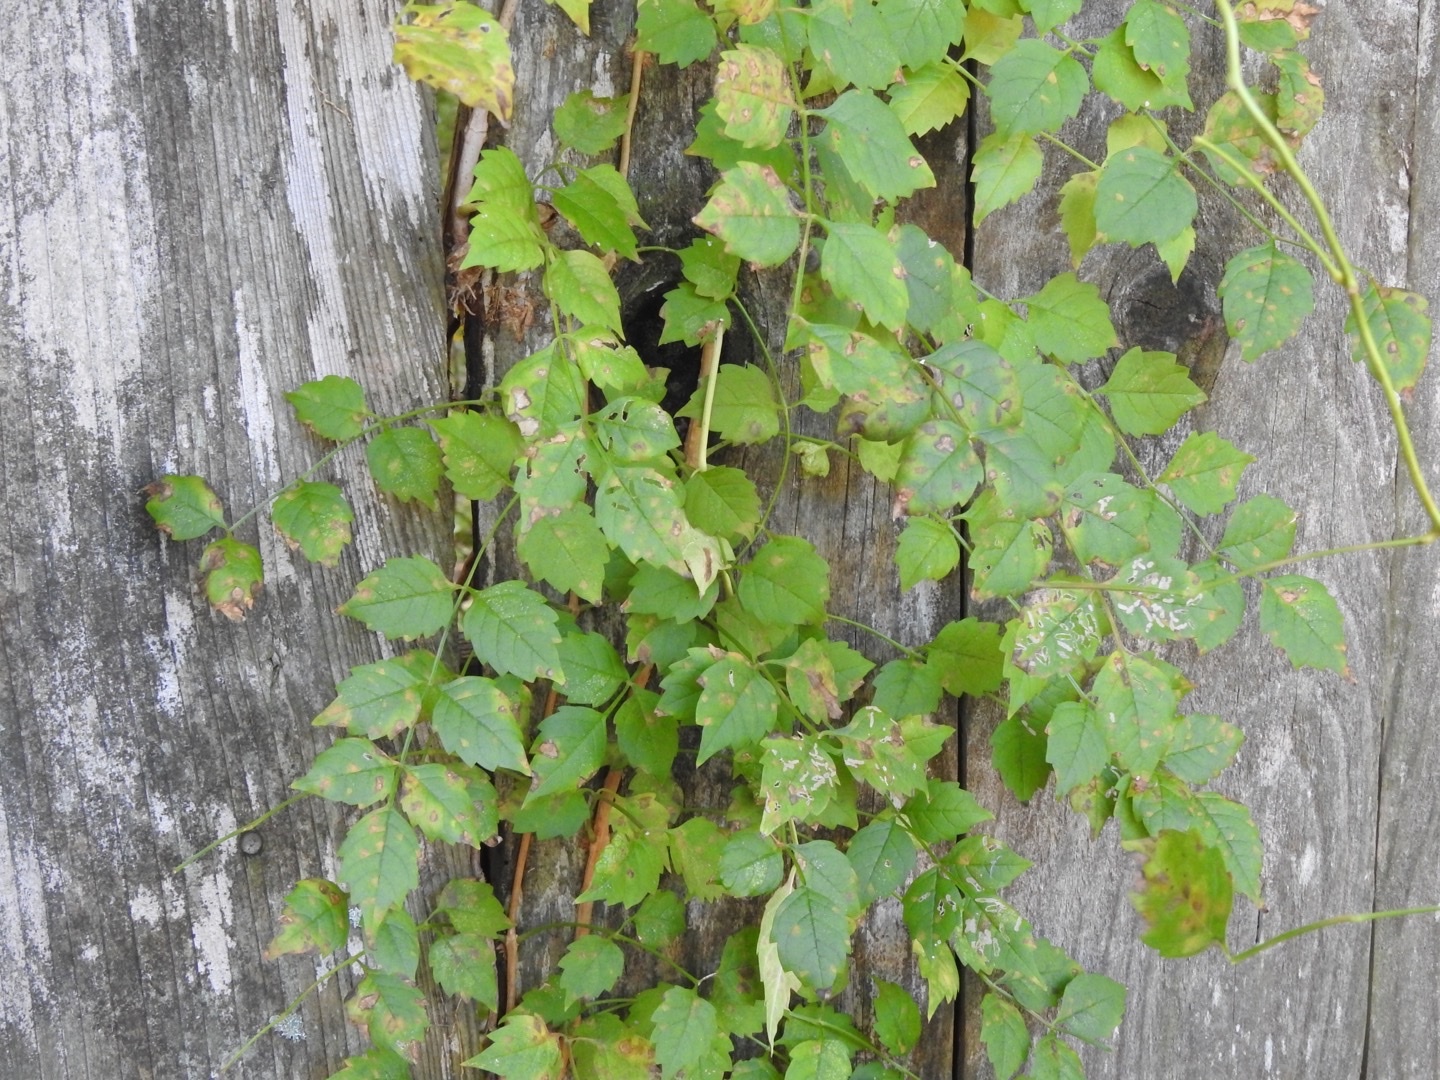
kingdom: Plantae
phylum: Tracheophyta
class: Magnoliopsida
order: Lamiales
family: Bignoniaceae
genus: Campsis
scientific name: Campsis radicans
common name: Trumpet-creeper
